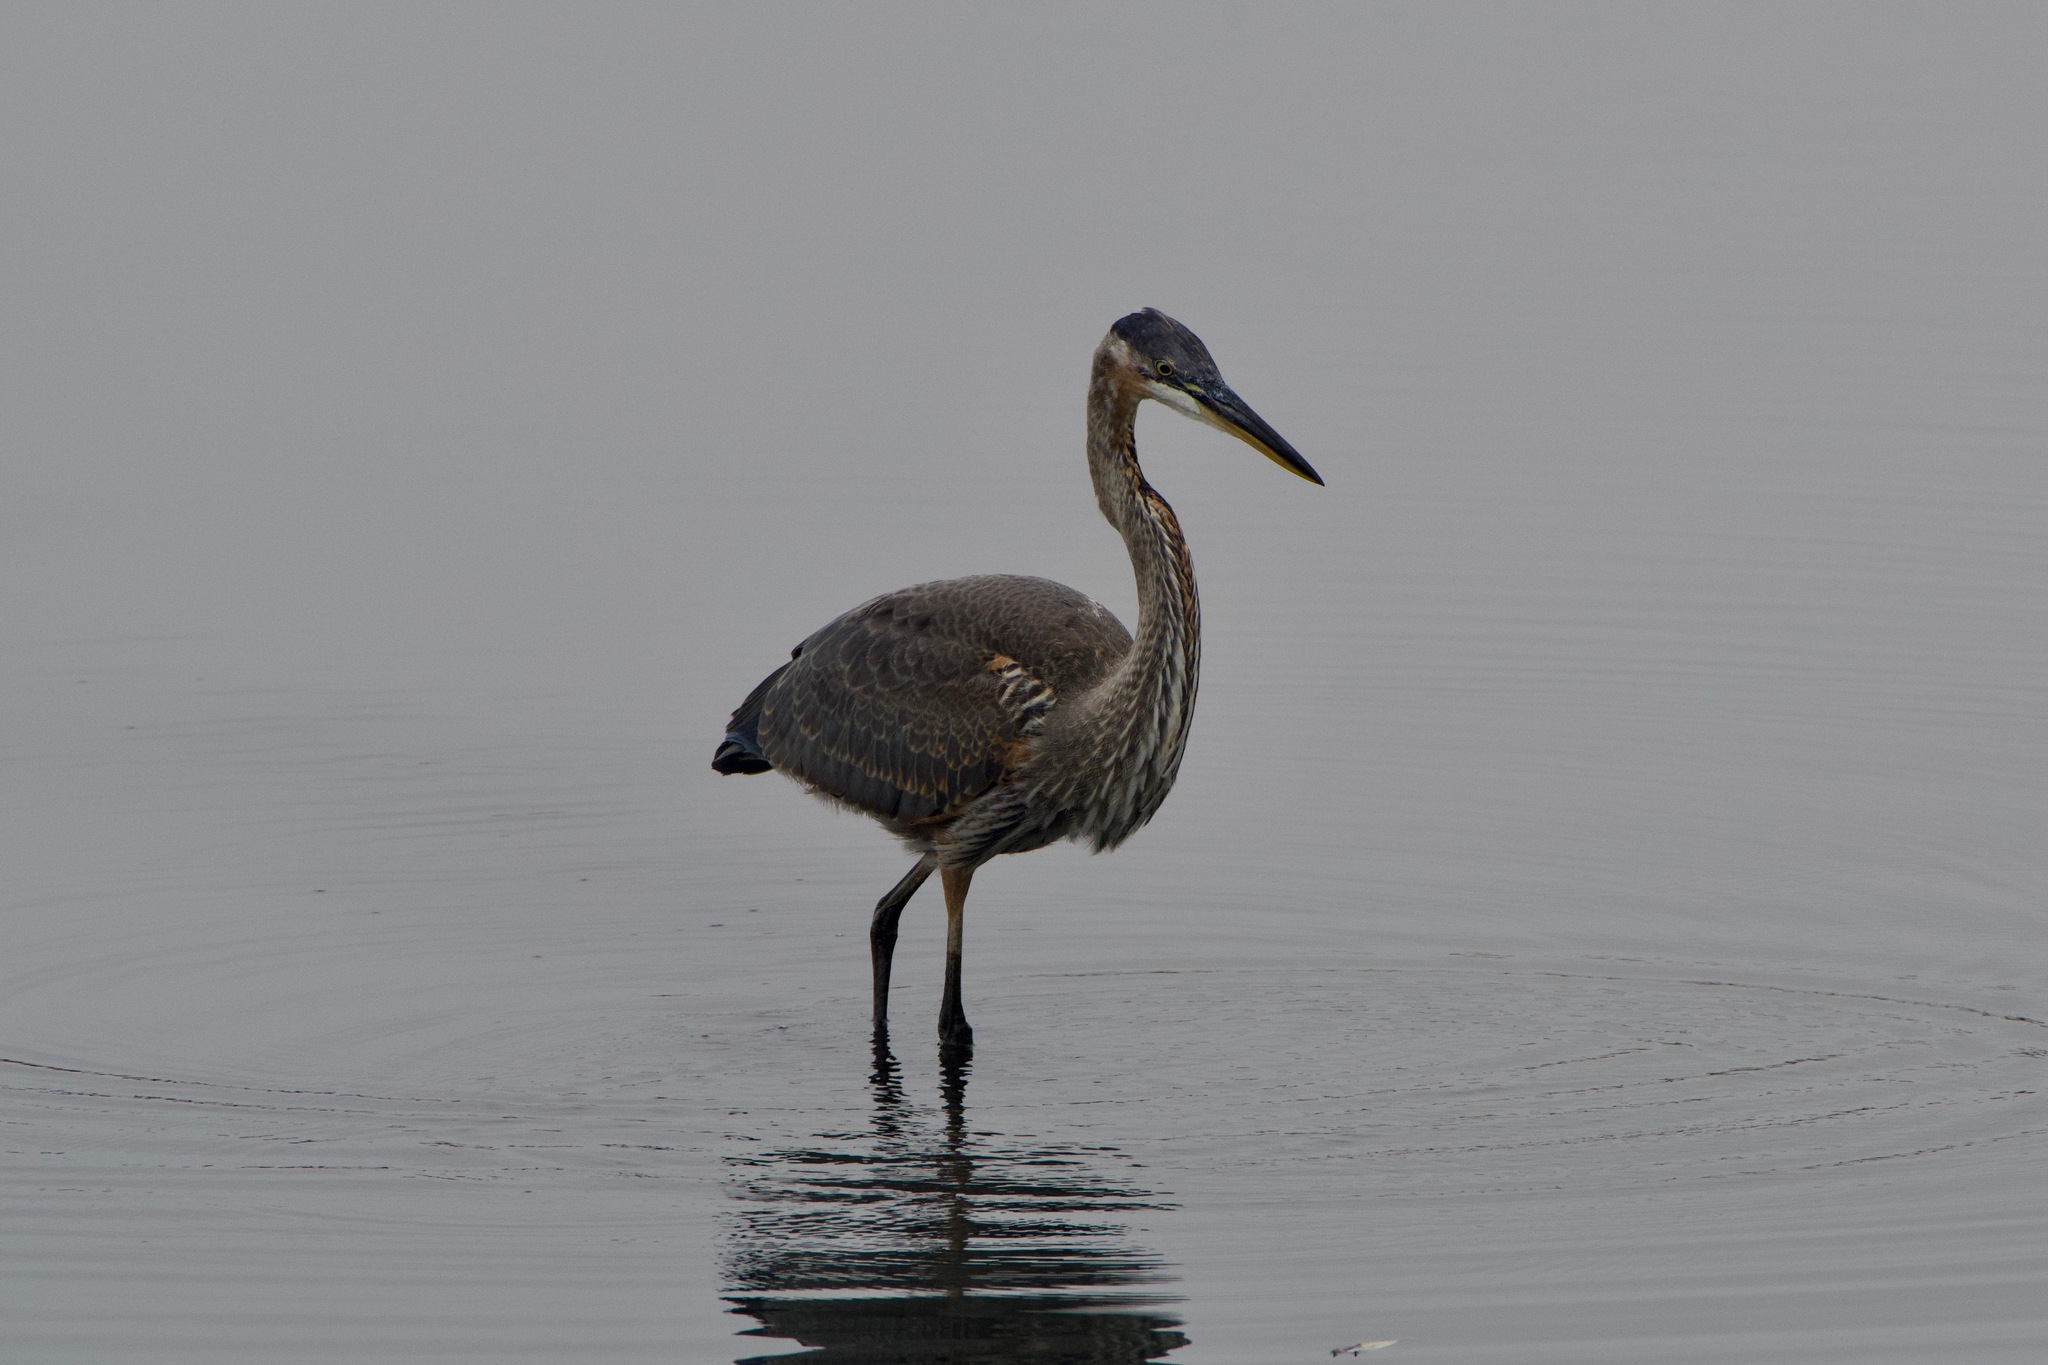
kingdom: Animalia
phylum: Chordata
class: Aves
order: Pelecaniformes
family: Ardeidae
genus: Ardea
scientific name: Ardea herodias
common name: Great blue heron
